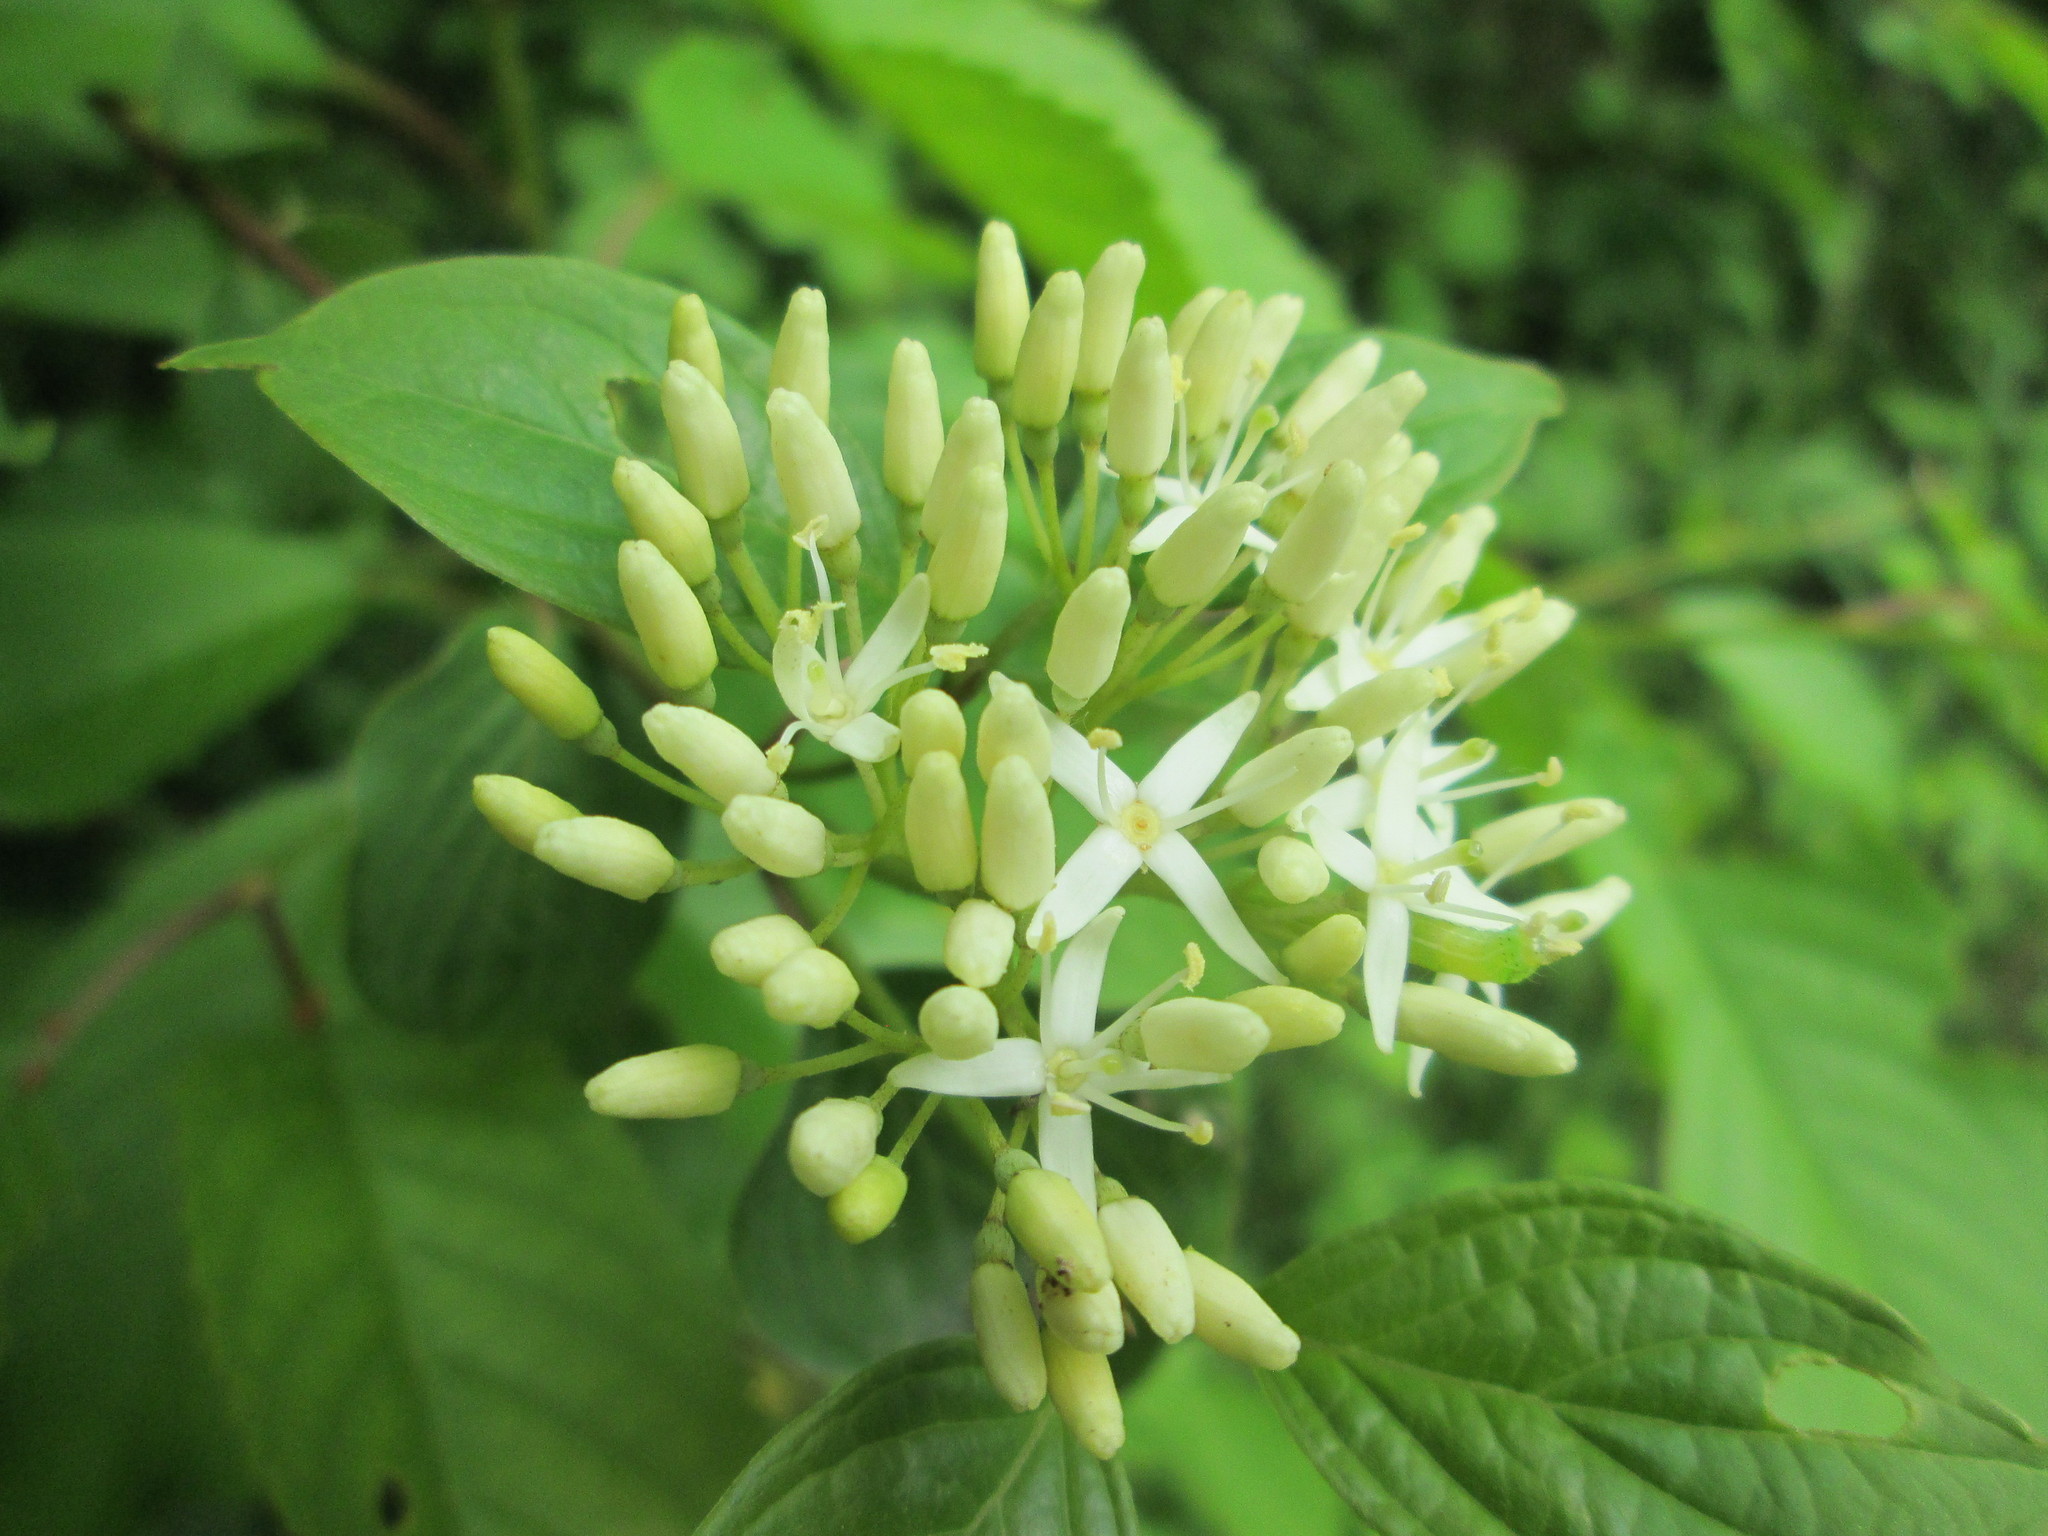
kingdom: Plantae
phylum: Tracheophyta
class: Magnoliopsida
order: Cornales
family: Cornaceae
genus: Cornus
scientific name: Cornus sanguinea
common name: Dogwood
